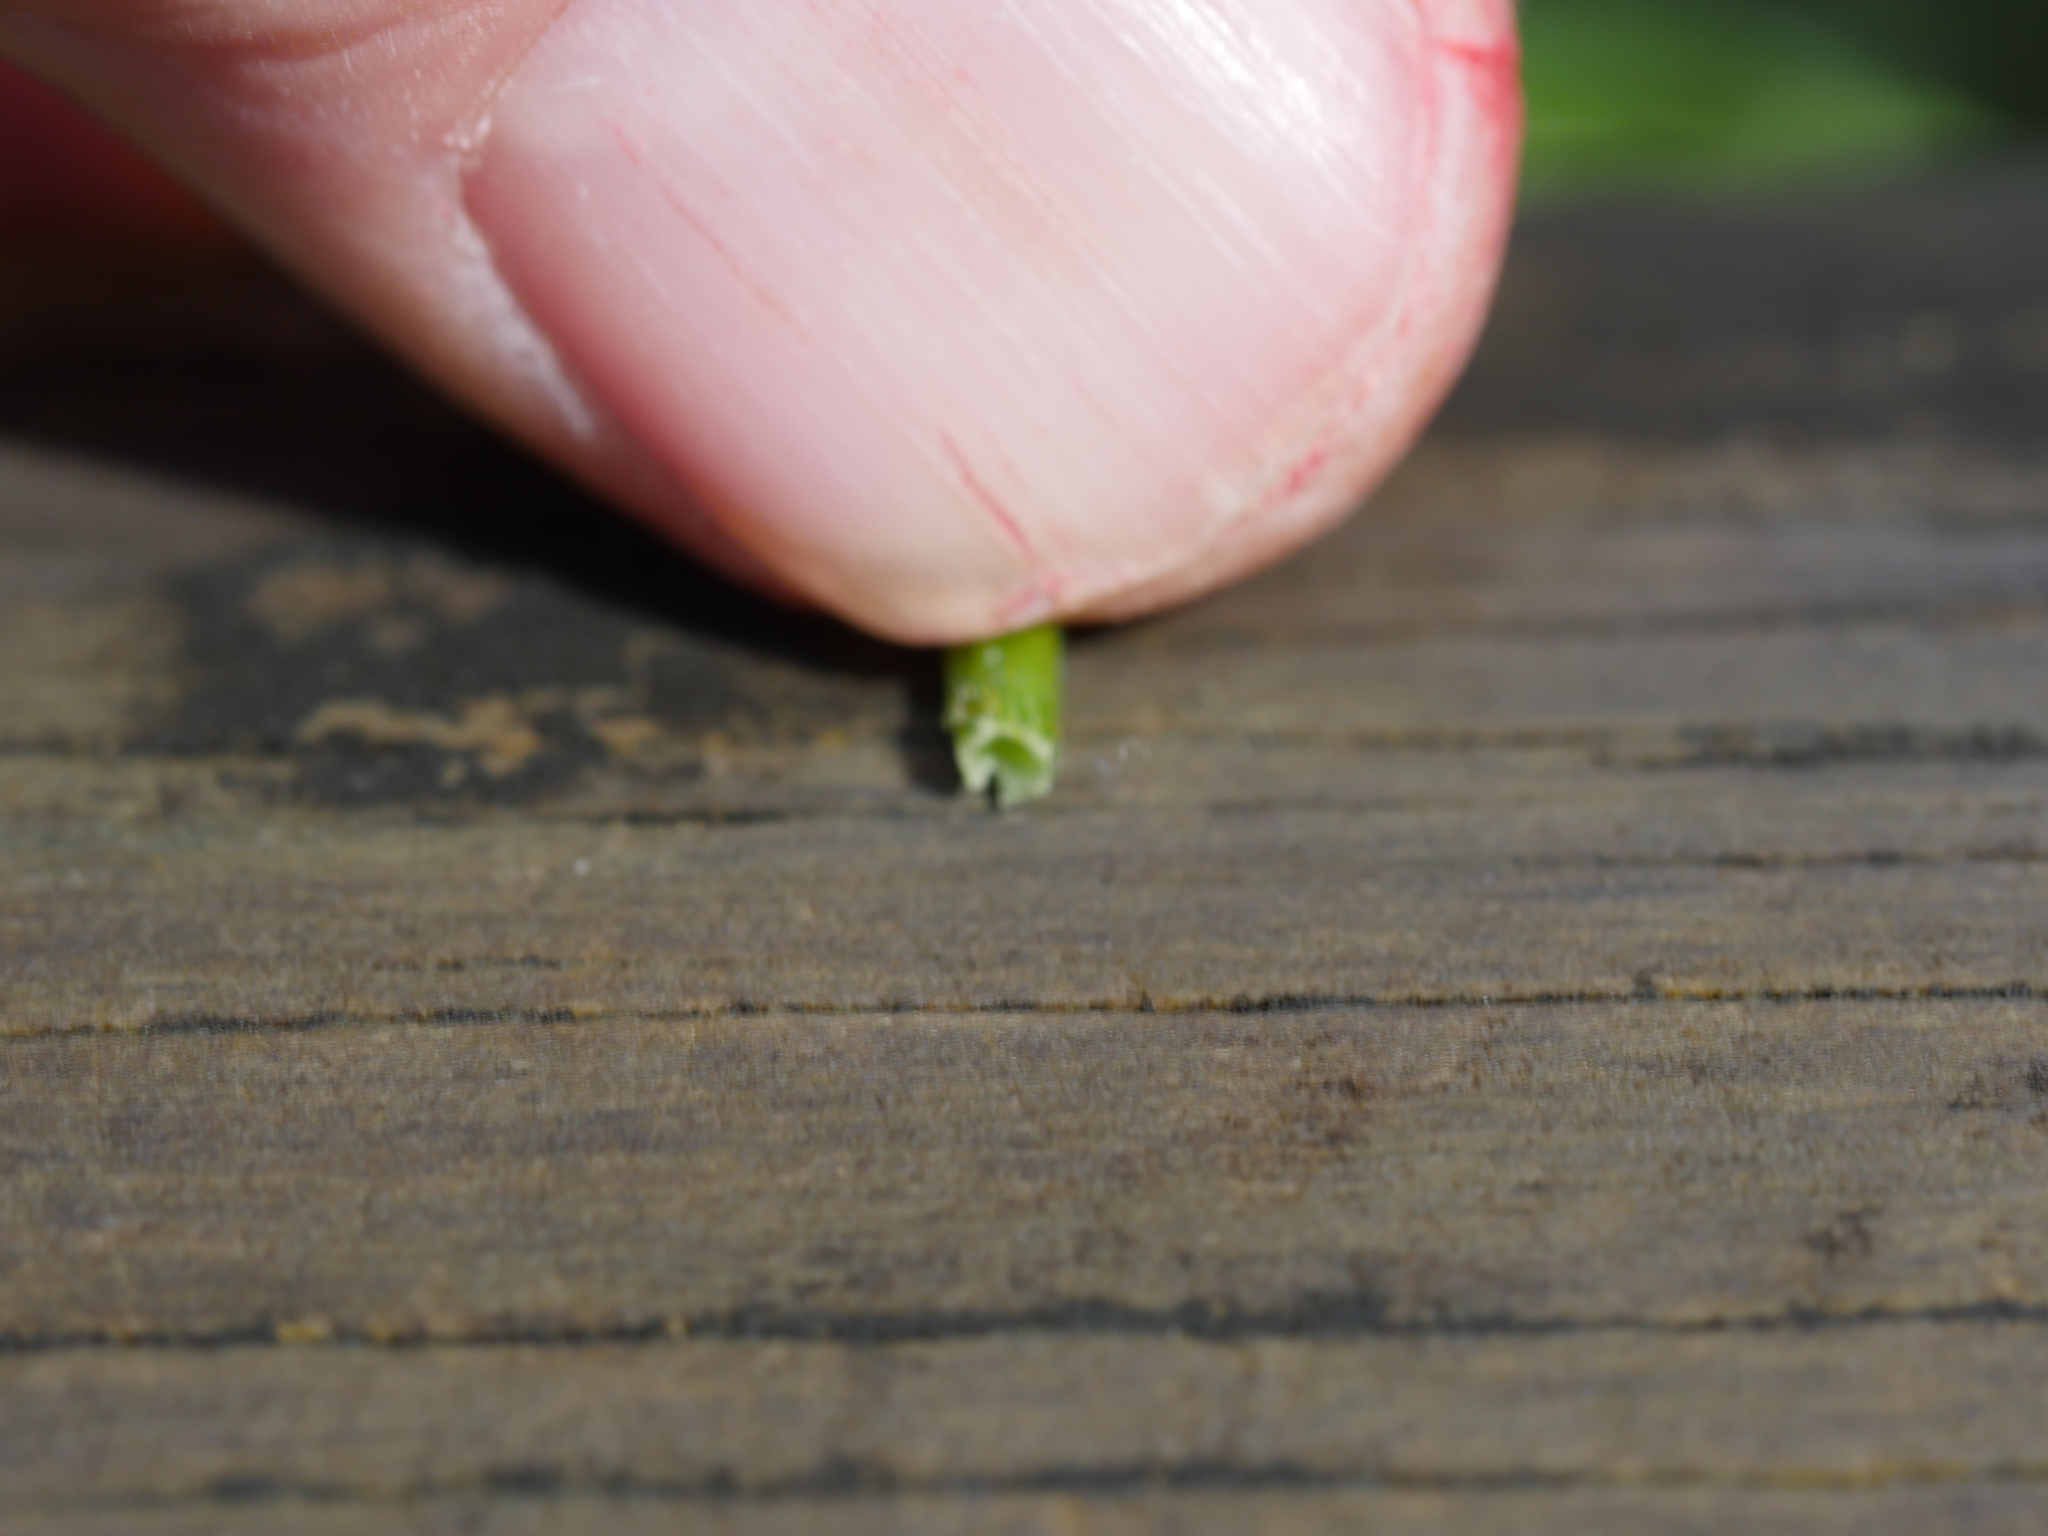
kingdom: Plantae
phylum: Tracheophyta
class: Magnoliopsida
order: Asterales
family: Asteraceae
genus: Crepis
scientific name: Crepis capillaris
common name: Smooth hawksbeard
